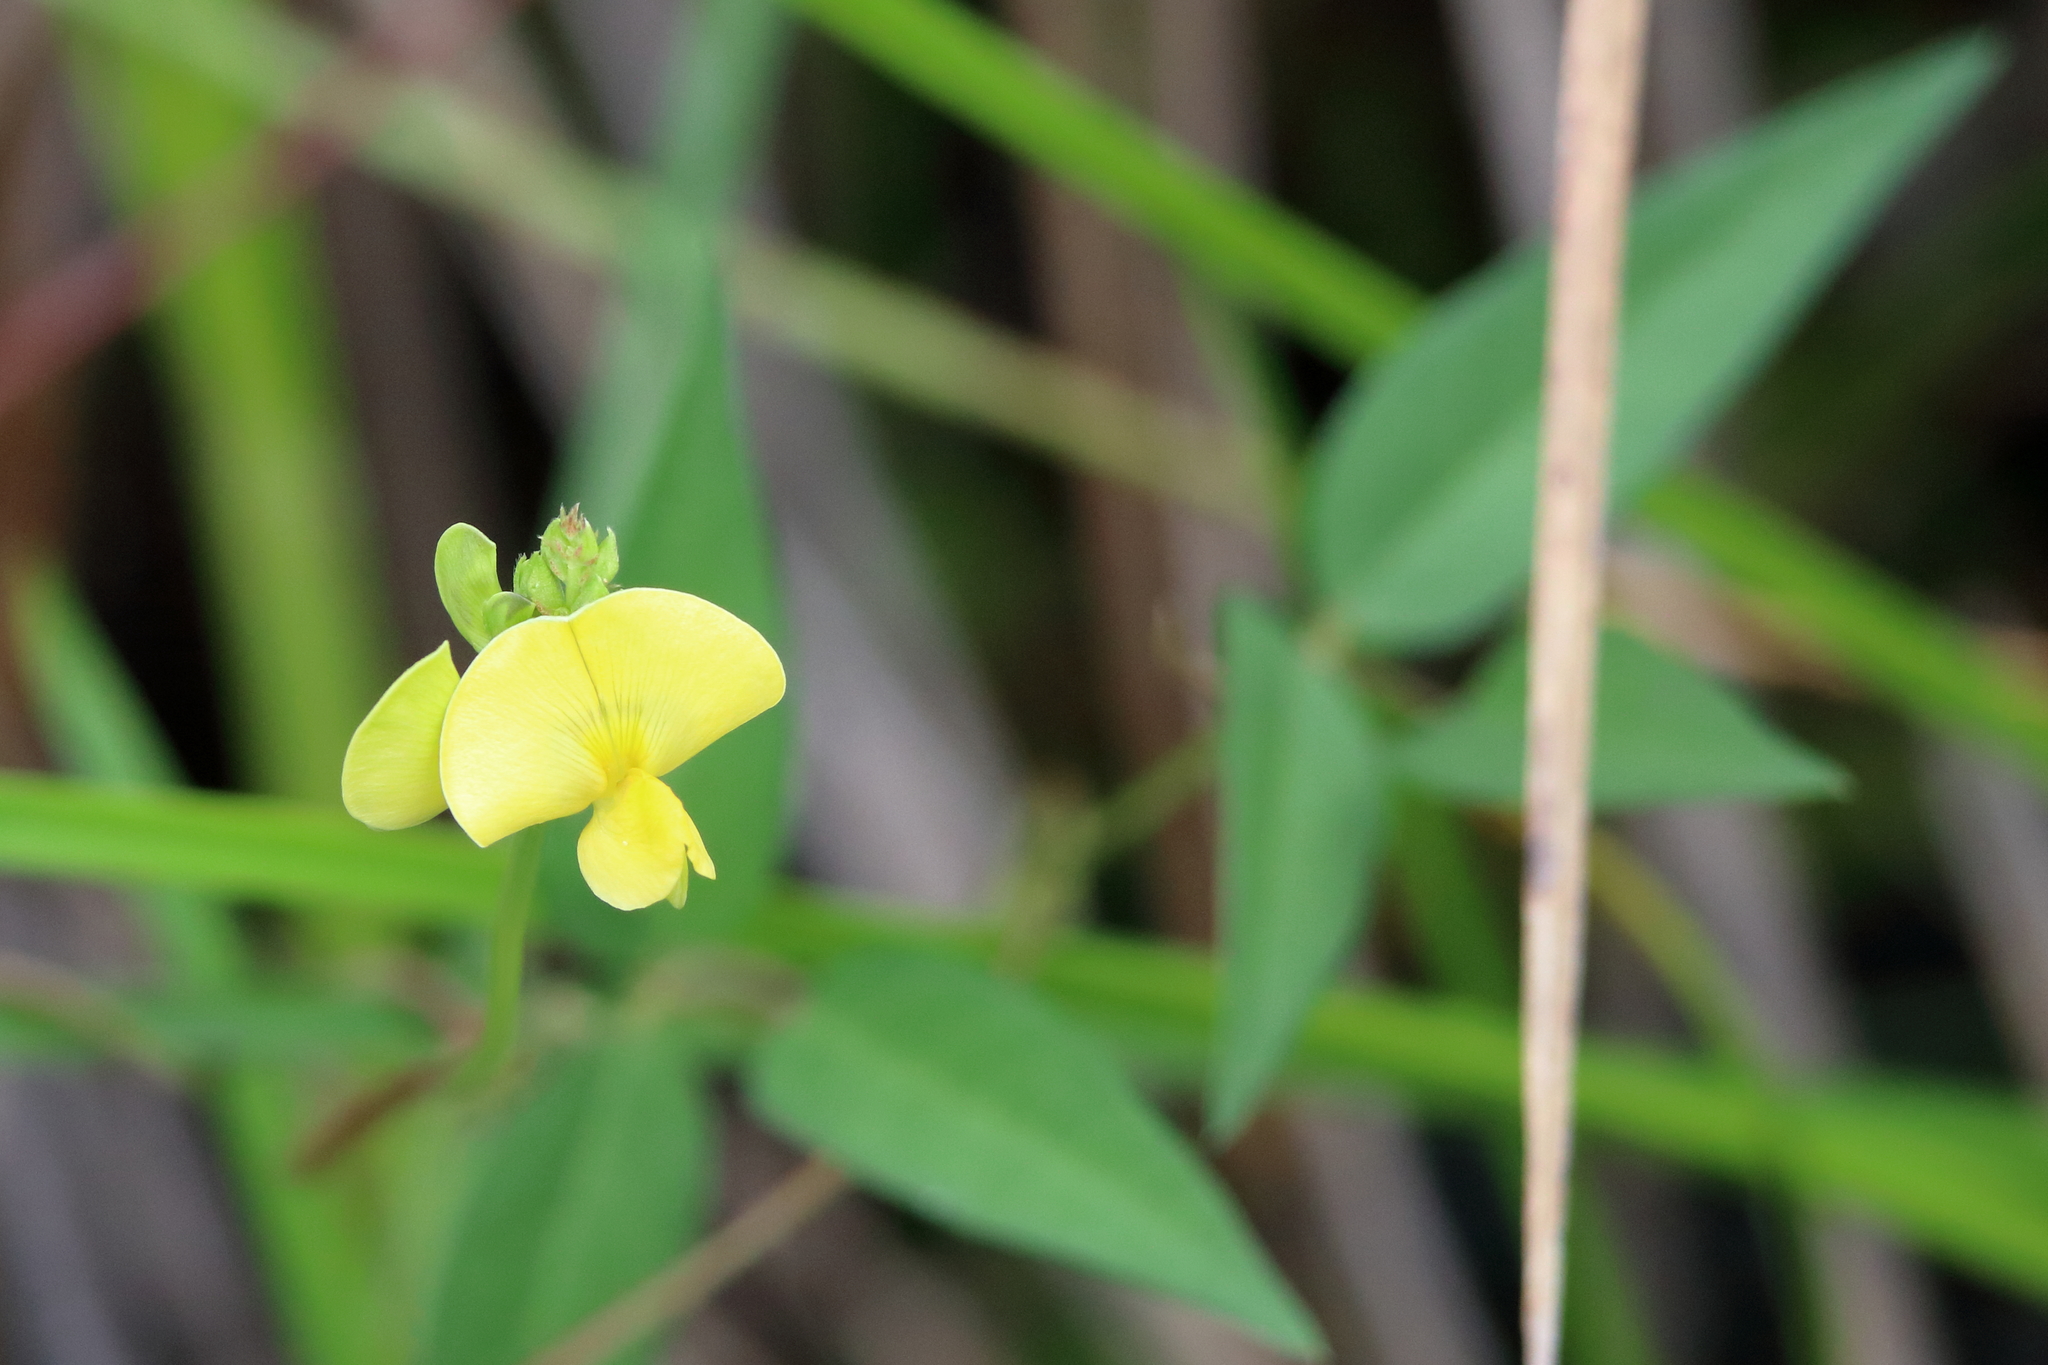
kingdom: Plantae
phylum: Tracheophyta
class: Magnoliopsida
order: Fabales
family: Fabaceae
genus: Vigna
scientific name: Vigna luteola
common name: Hairypod cowpea
